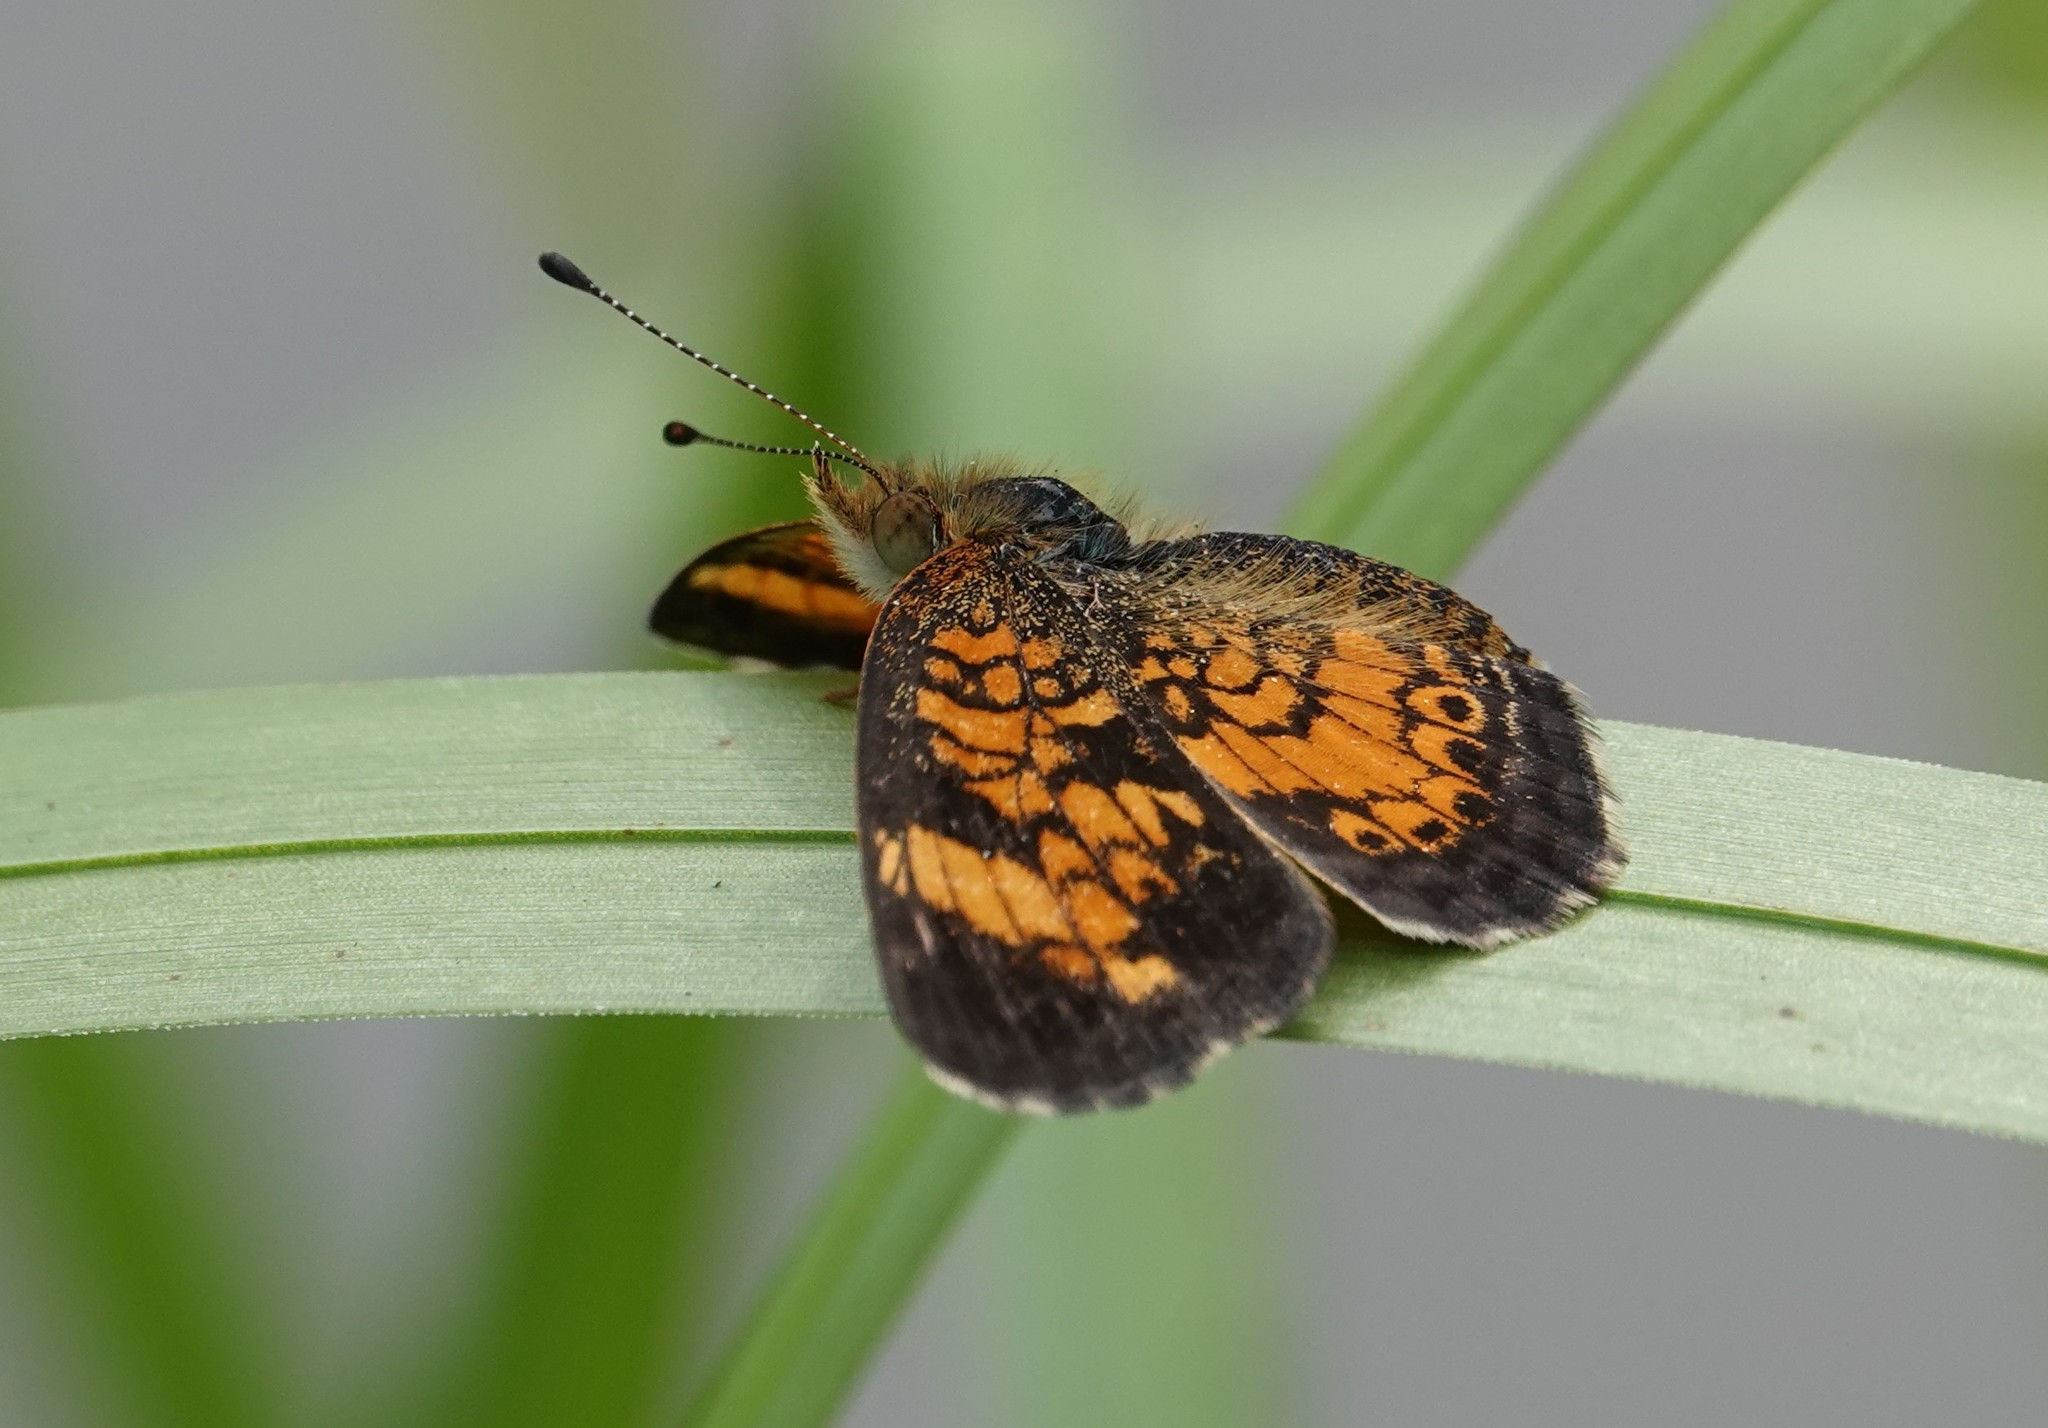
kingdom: Animalia
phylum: Arthropoda
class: Insecta
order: Lepidoptera
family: Nymphalidae
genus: Phyciodes
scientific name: Phyciodes tharos
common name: Pearl crescent
